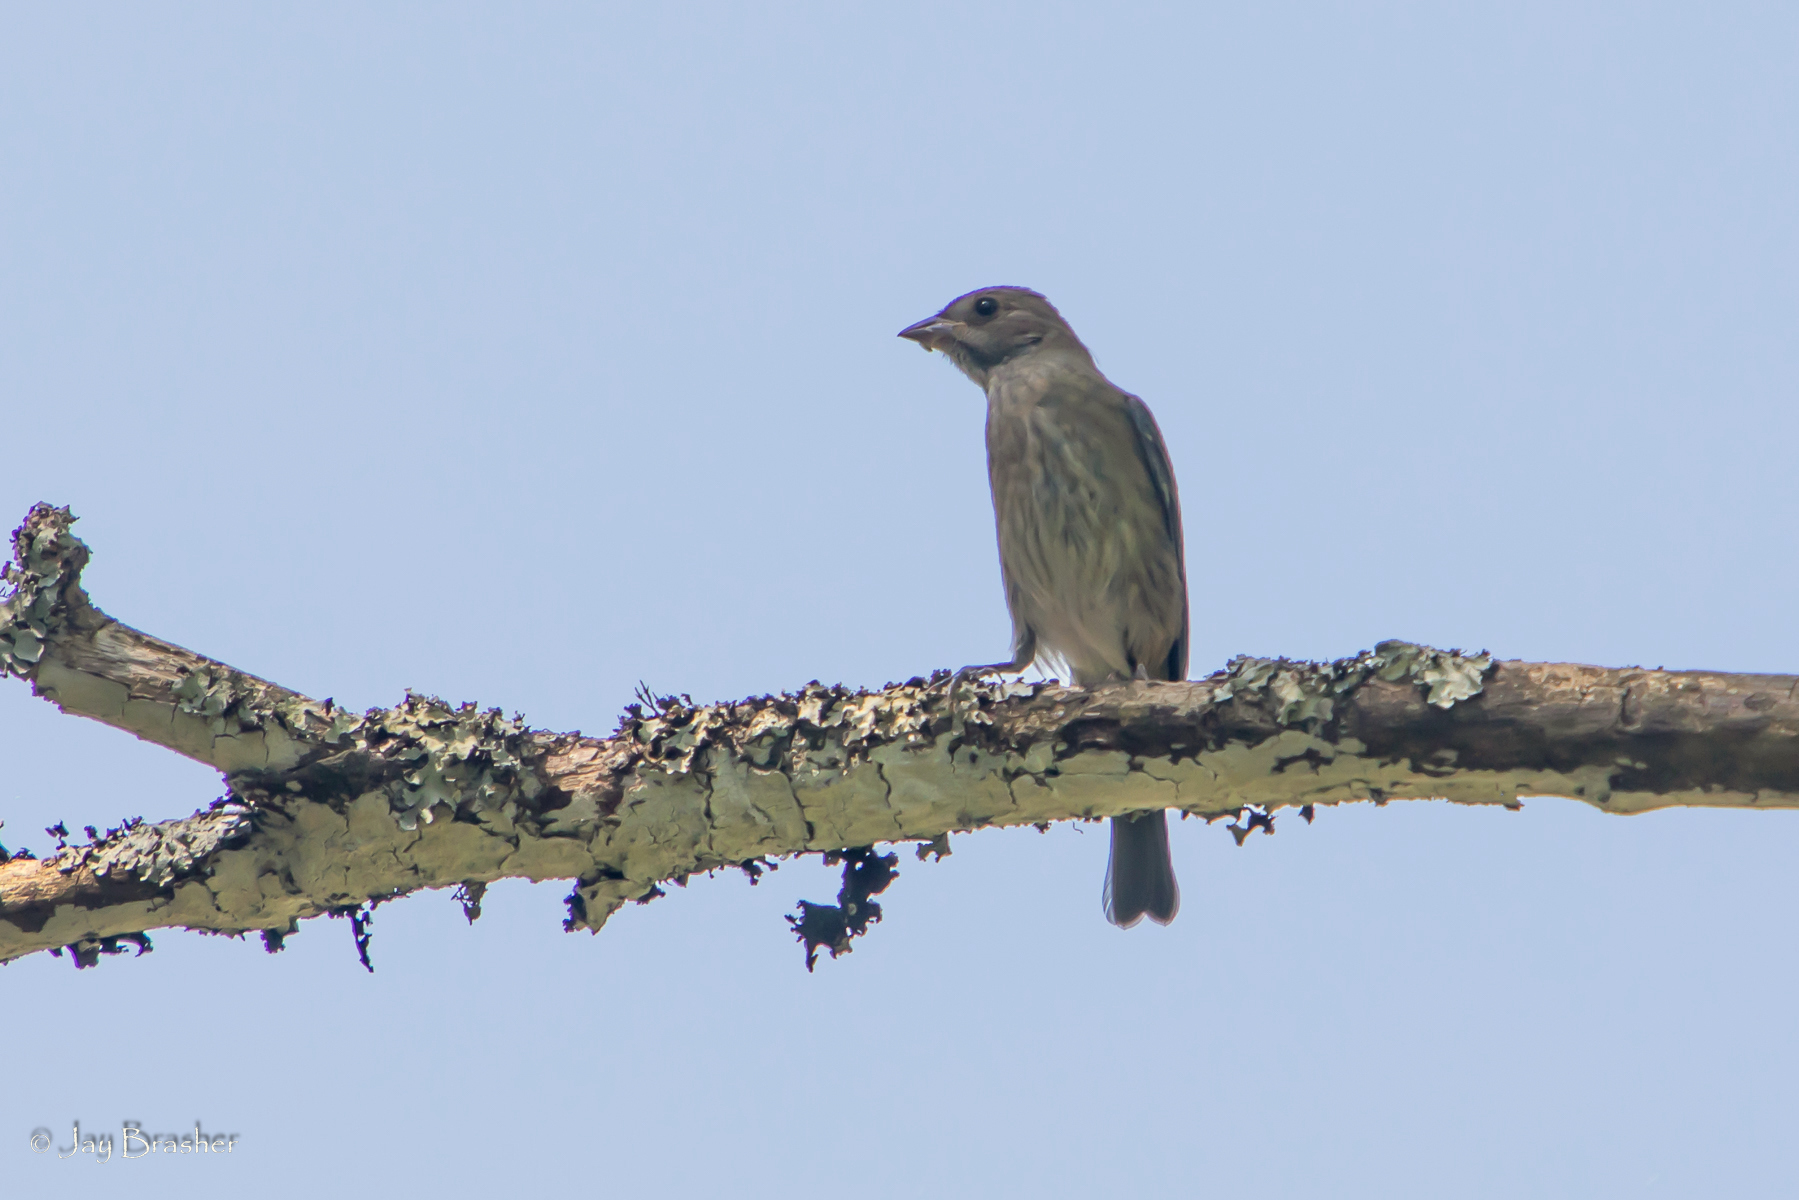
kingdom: Animalia
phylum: Chordata
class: Aves
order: Passeriformes
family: Cardinalidae
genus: Passerina
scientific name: Passerina cyanea
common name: Indigo bunting
